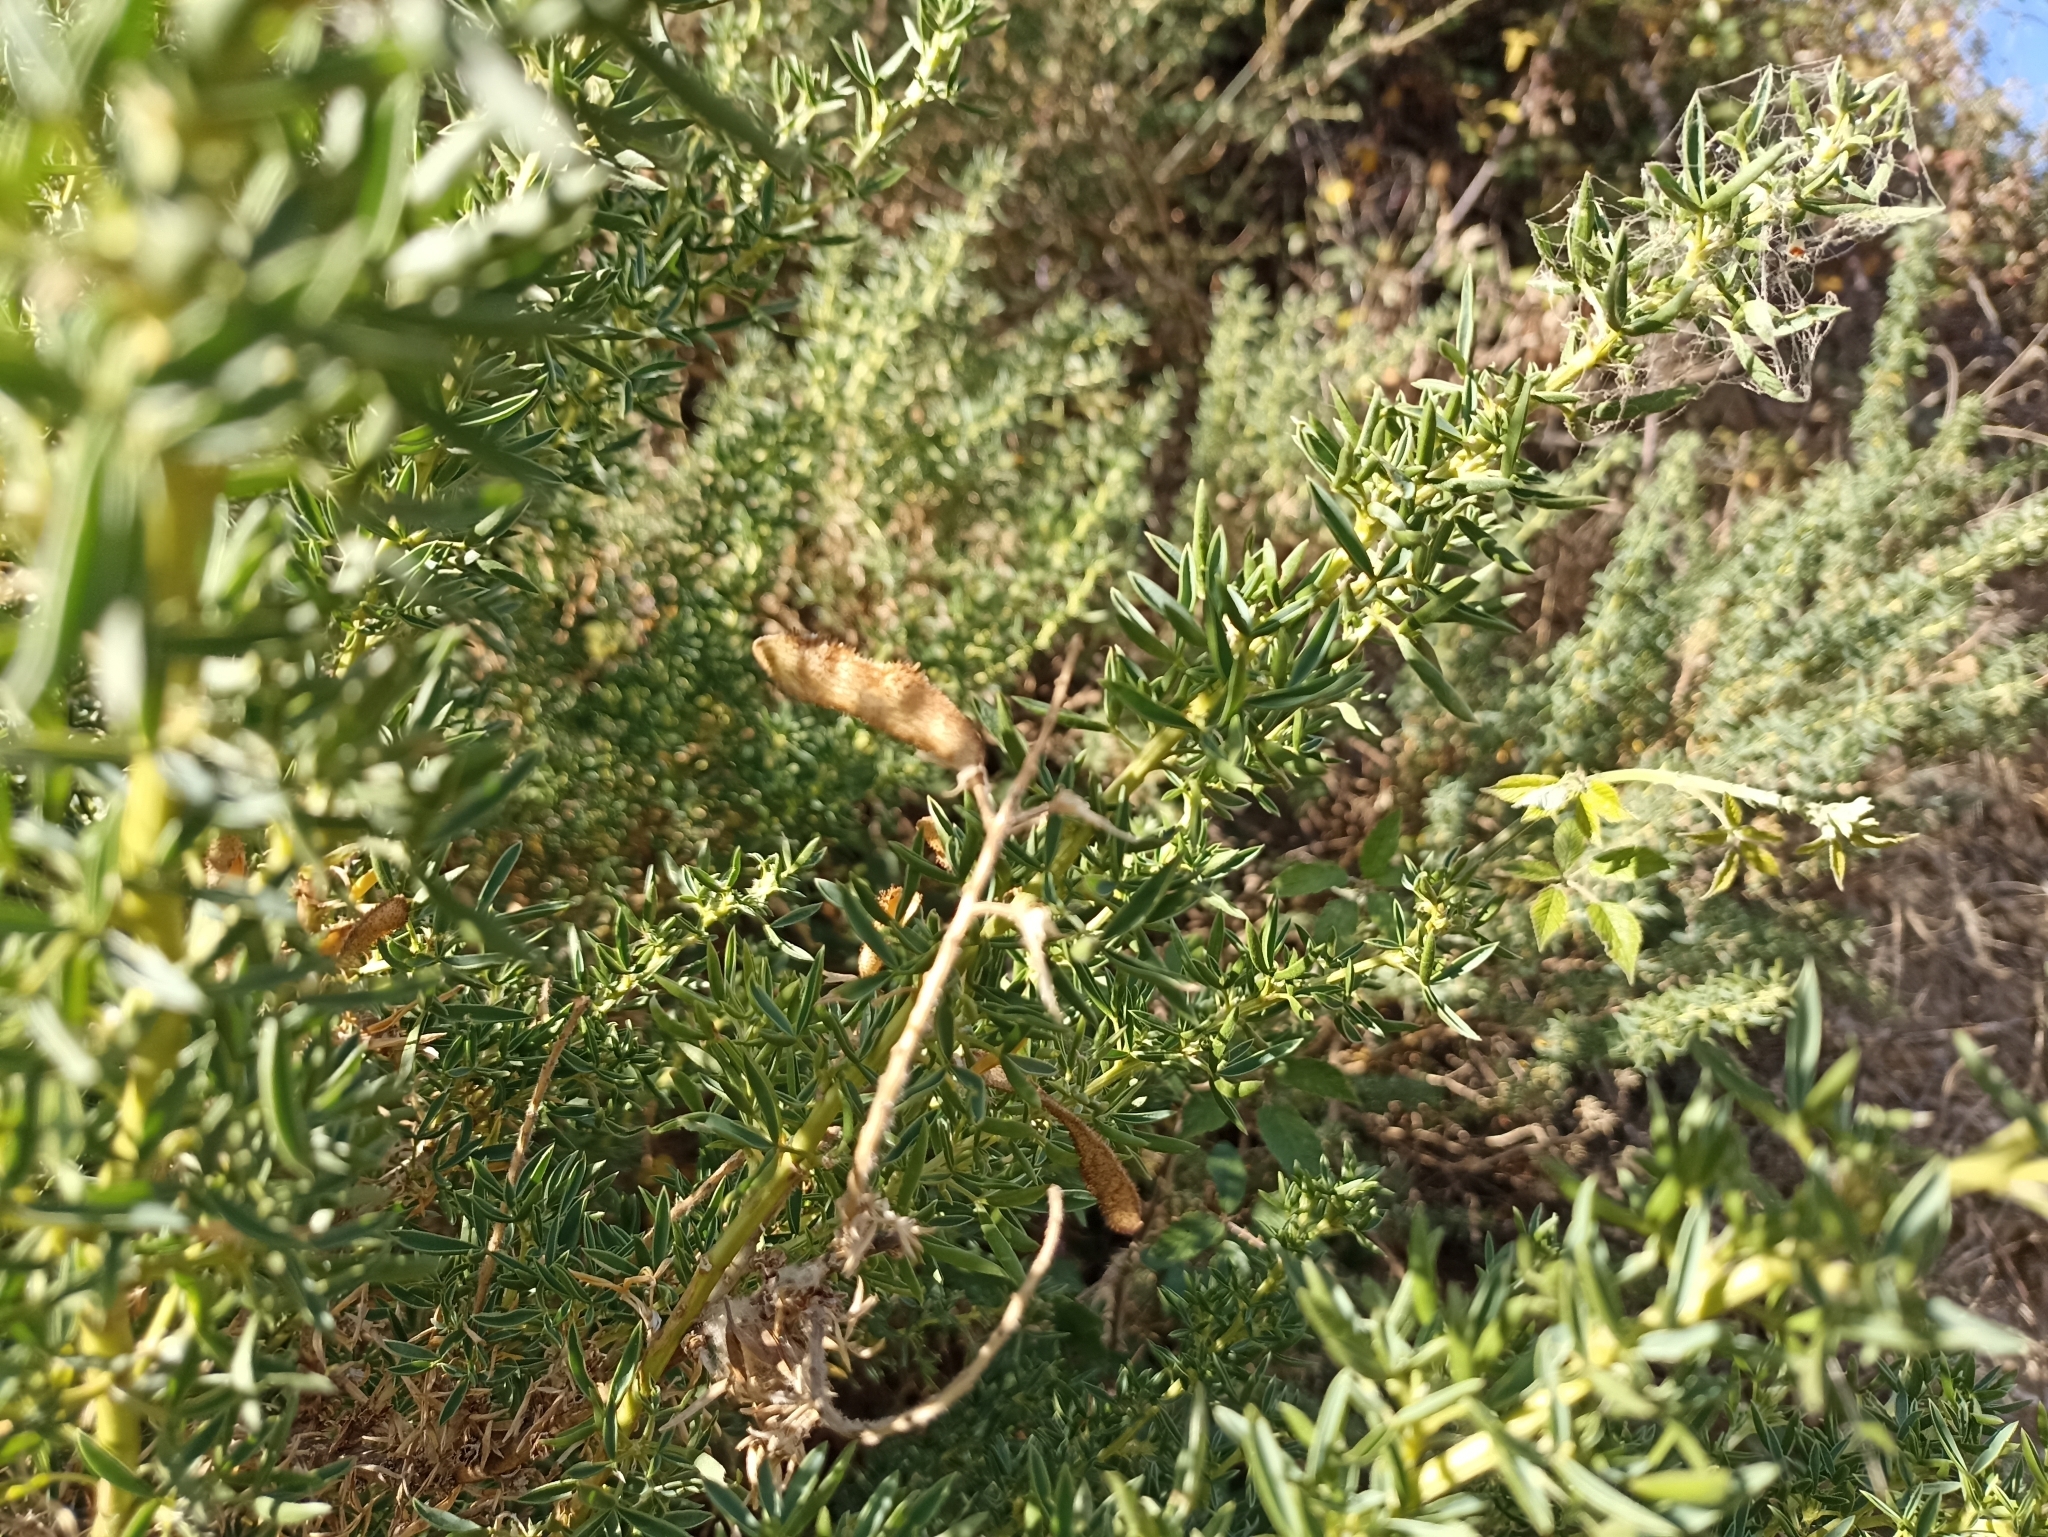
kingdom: Plantae
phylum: Tracheophyta
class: Magnoliopsida
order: Fabales
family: Fabaceae
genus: Adenocarpus
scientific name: Adenocarpus hispanicus
